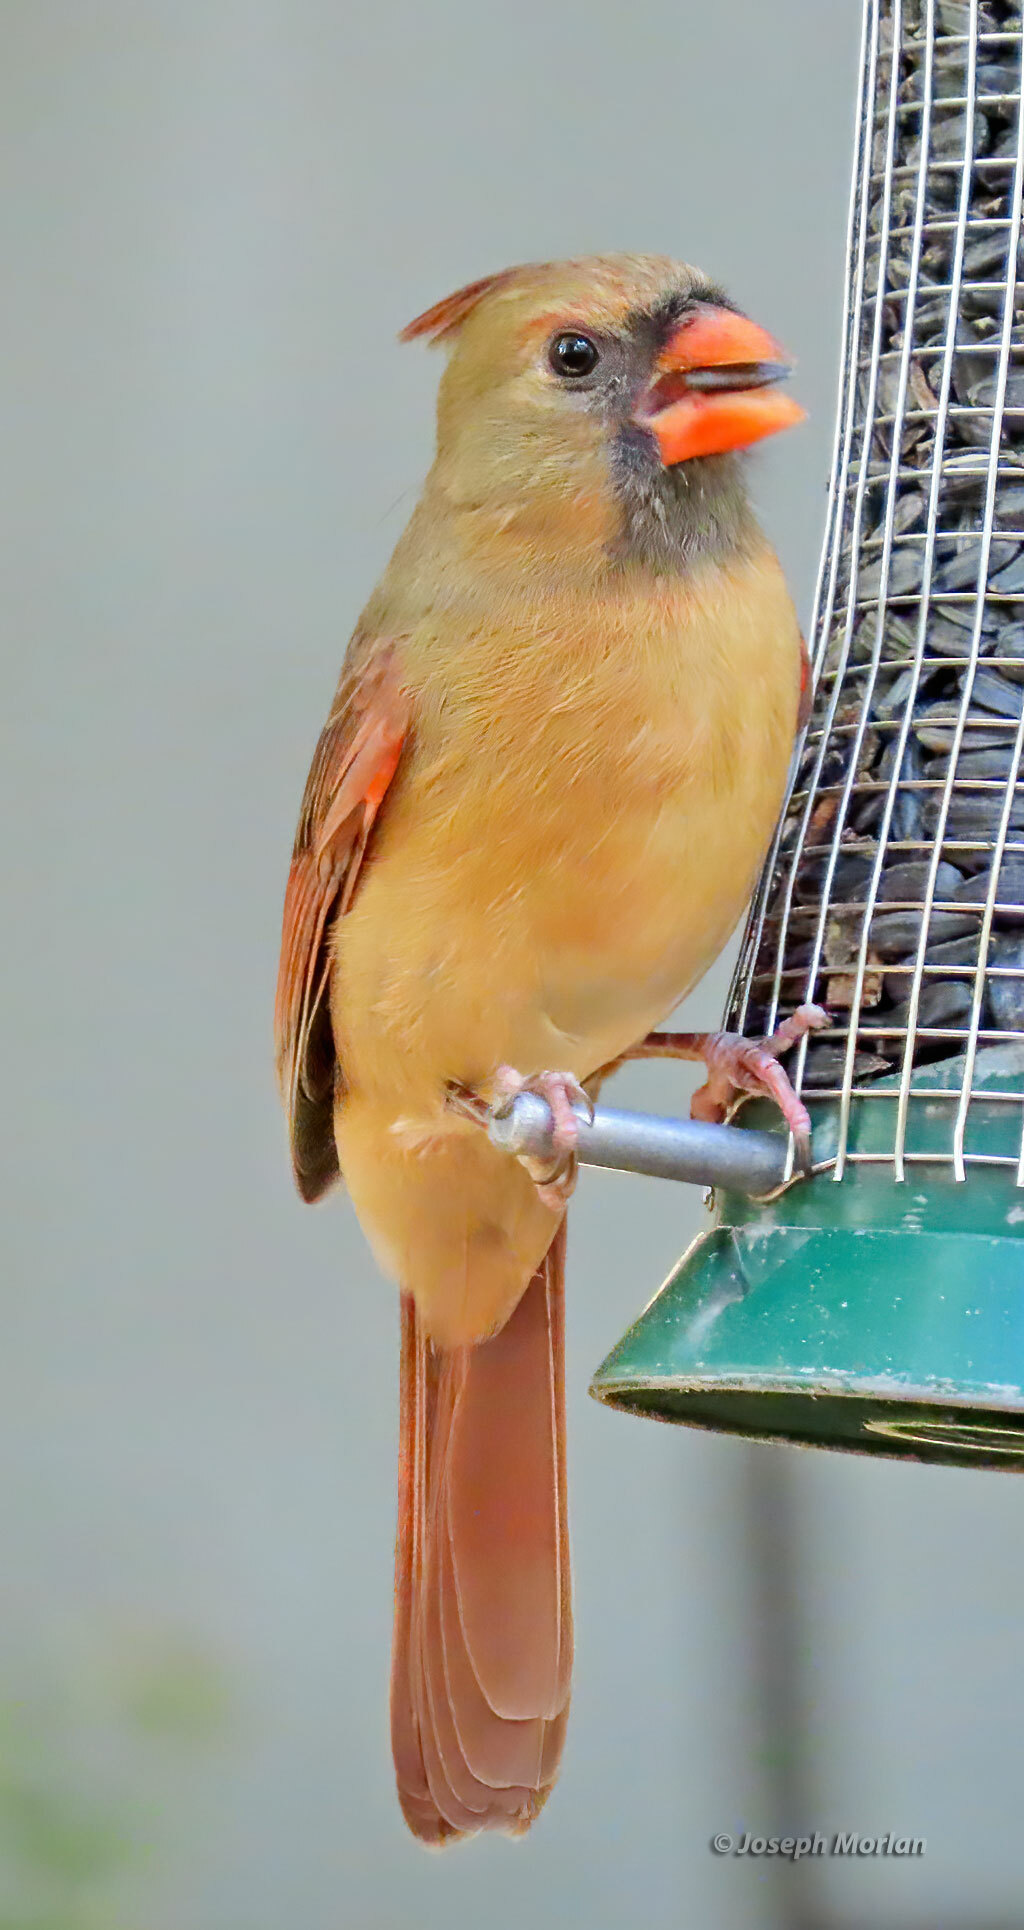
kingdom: Animalia
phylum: Chordata
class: Aves
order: Passeriformes
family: Cardinalidae
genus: Cardinalis
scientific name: Cardinalis cardinalis
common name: Northern cardinal
